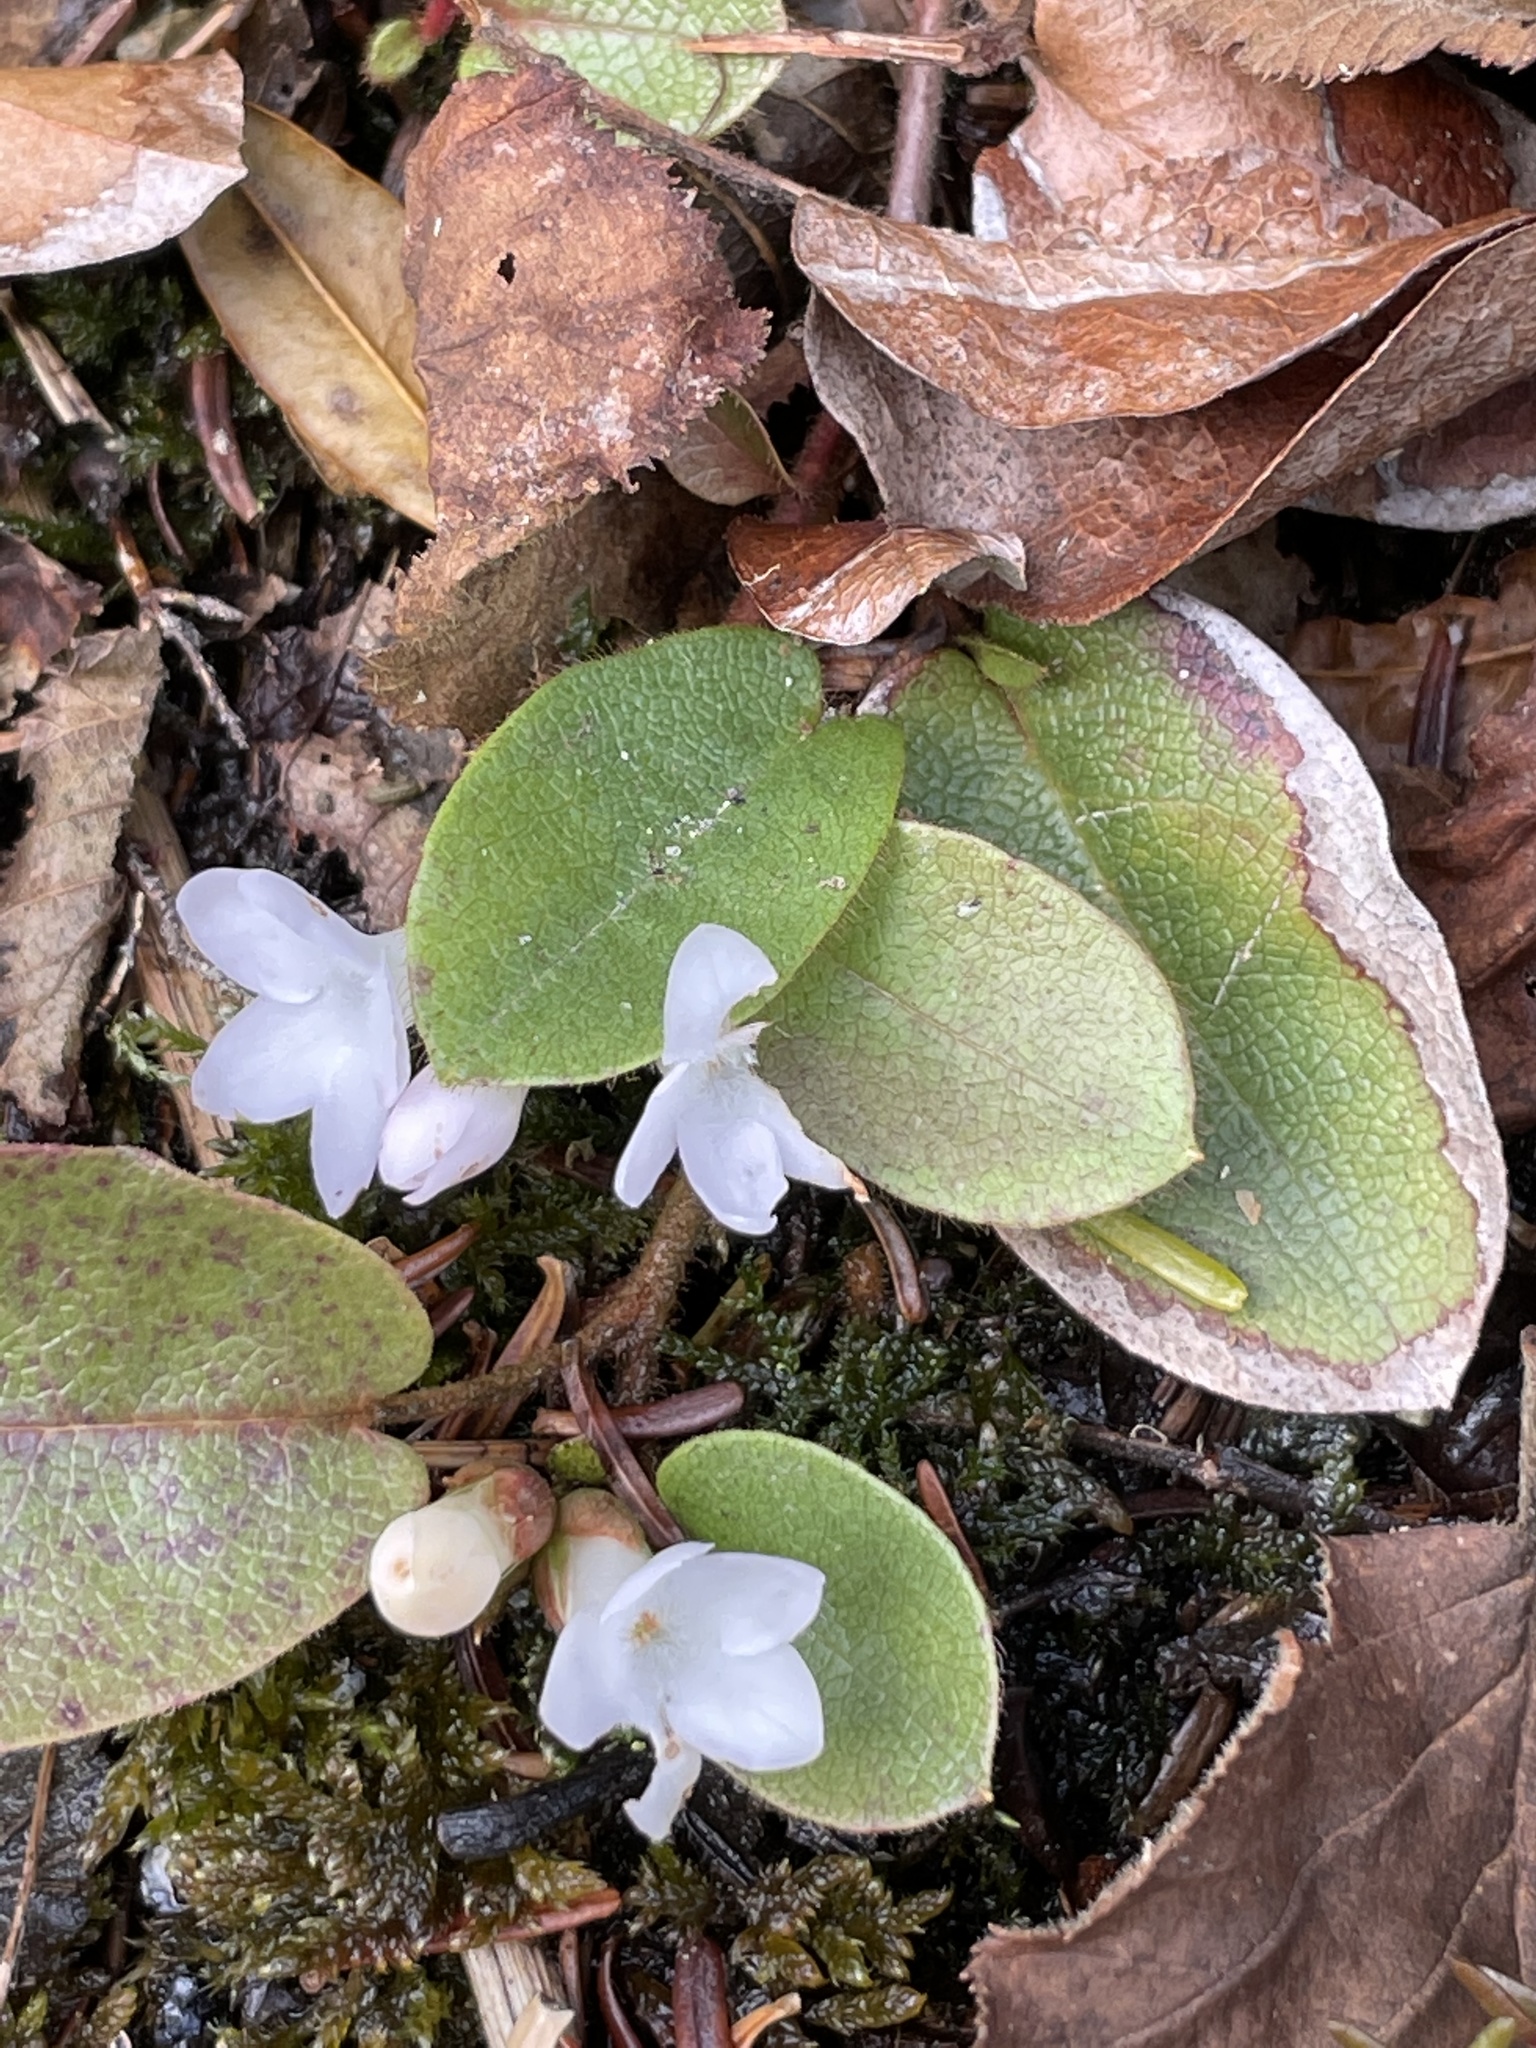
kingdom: Plantae
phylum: Tracheophyta
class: Magnoliopsida
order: Ericales
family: Ericaceae
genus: Epigaea
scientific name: Epigaea repens
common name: Gravelroot
